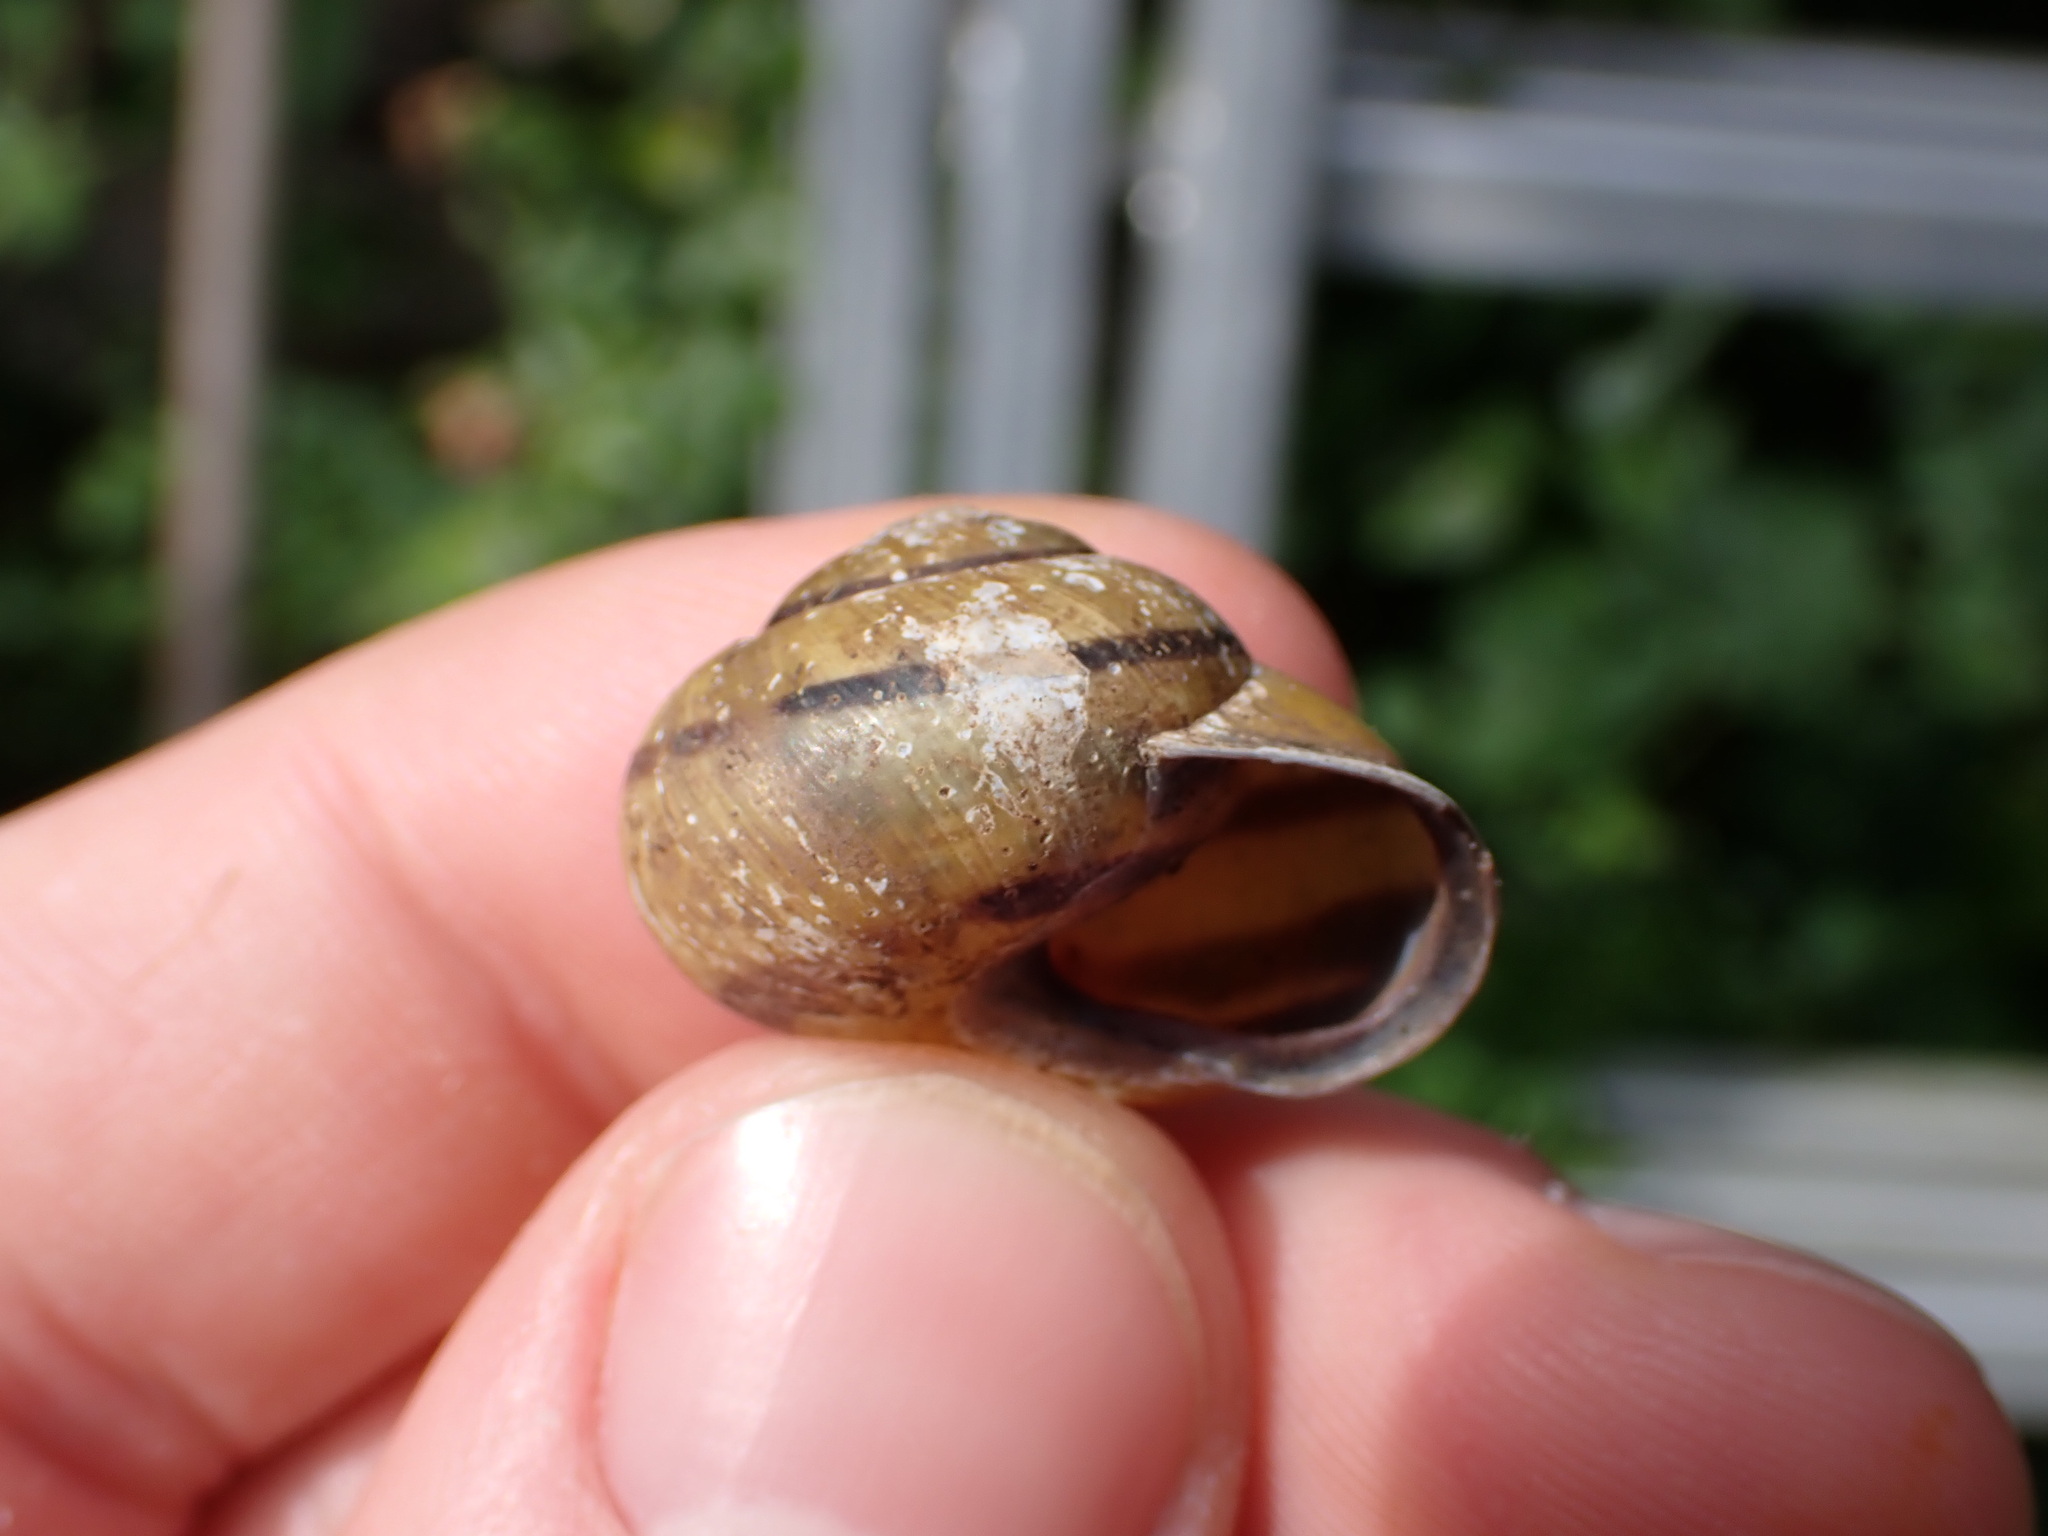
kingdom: Animalia
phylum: Mollusca
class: Gastropoda
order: Stylommatophora
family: Helicidae
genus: Cepaea
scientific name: Cepaea nemoralis
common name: Grovesnail
